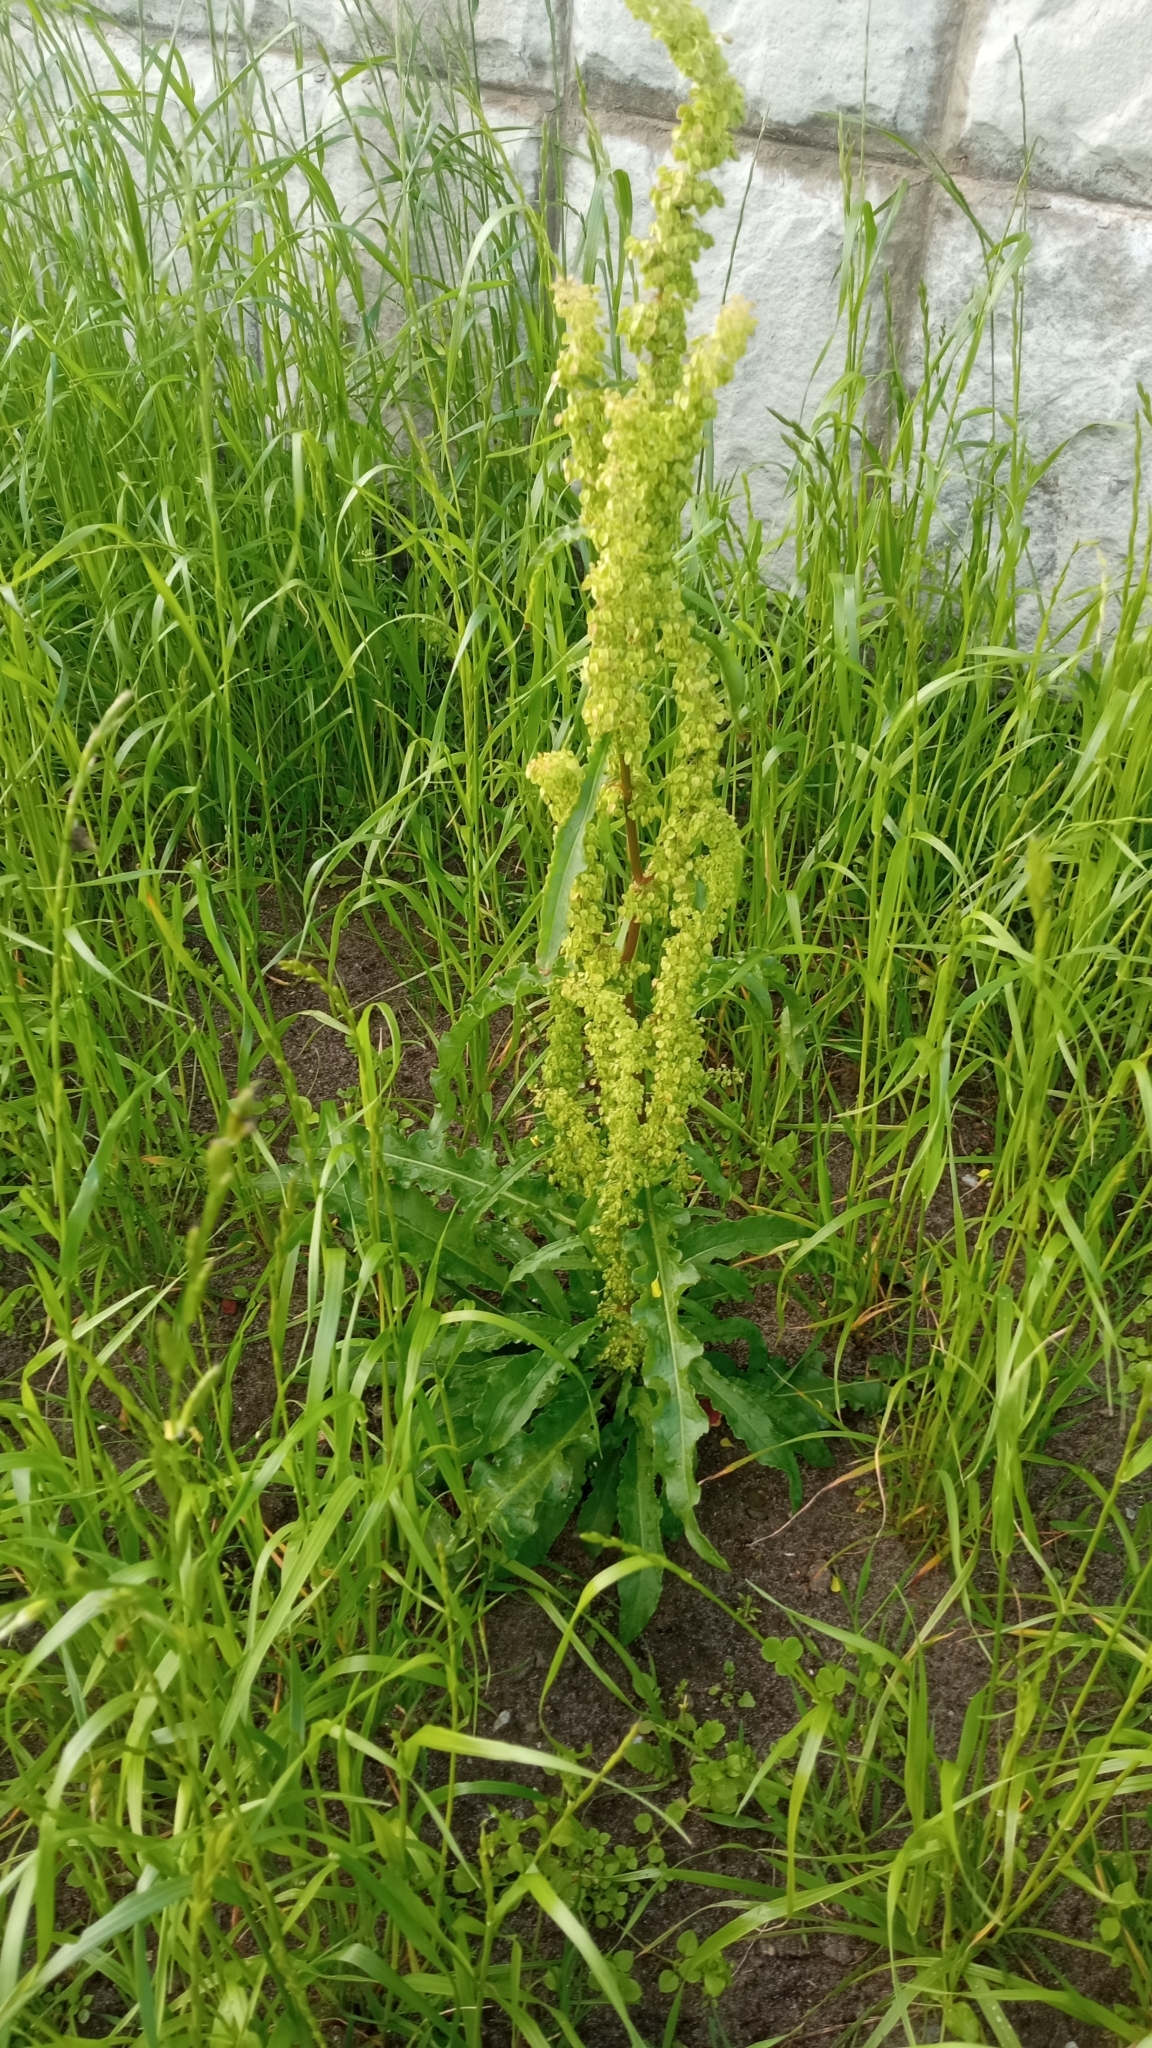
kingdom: Plantae
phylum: Tracheophyta
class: Magnoliopsida
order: Caryophyllales
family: Polygonaceae
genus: Rumex
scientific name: Rumex pseudonatronatus
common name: Field dock
